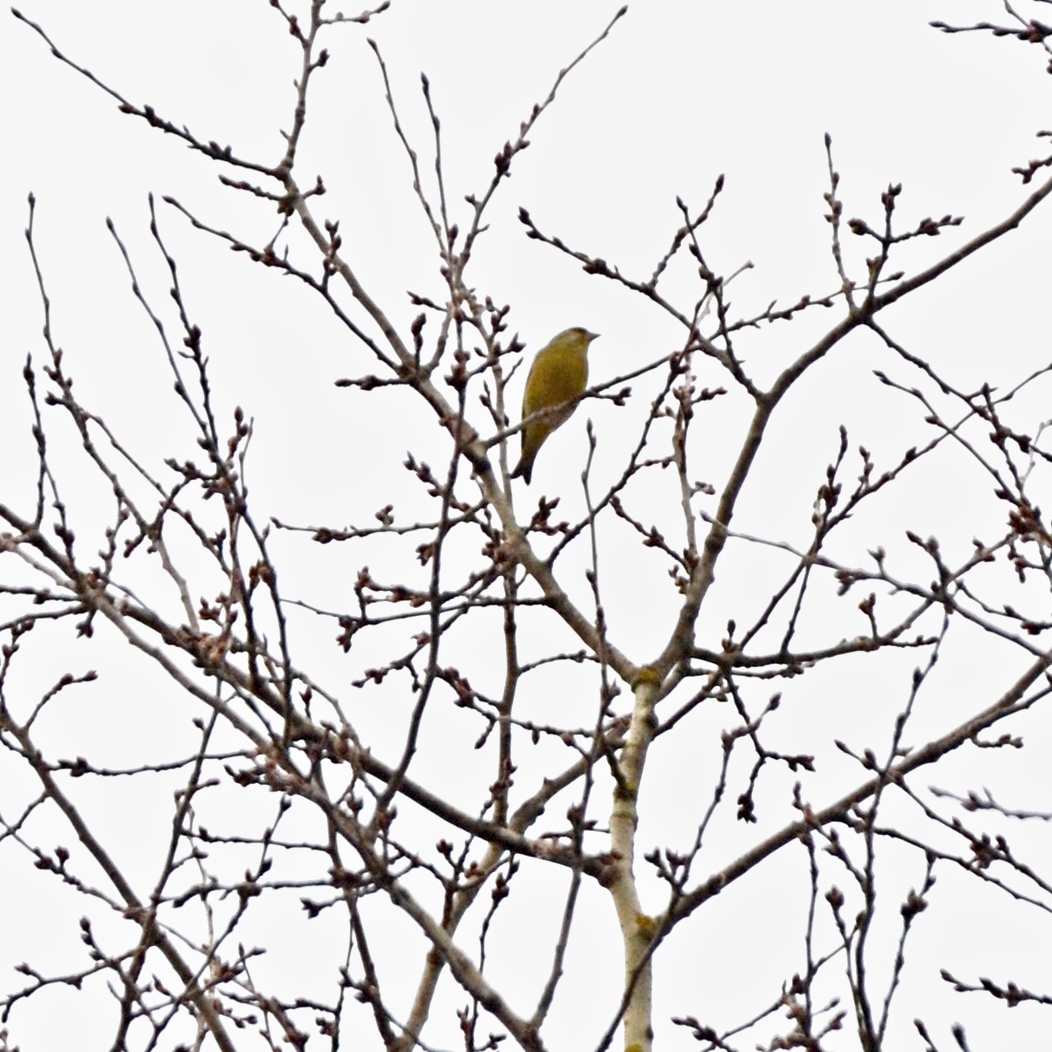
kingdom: Plantae
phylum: Tracheophyta
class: Liliopsida
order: Poales
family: Poaceae
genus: Chloris
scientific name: Chloris chloris
